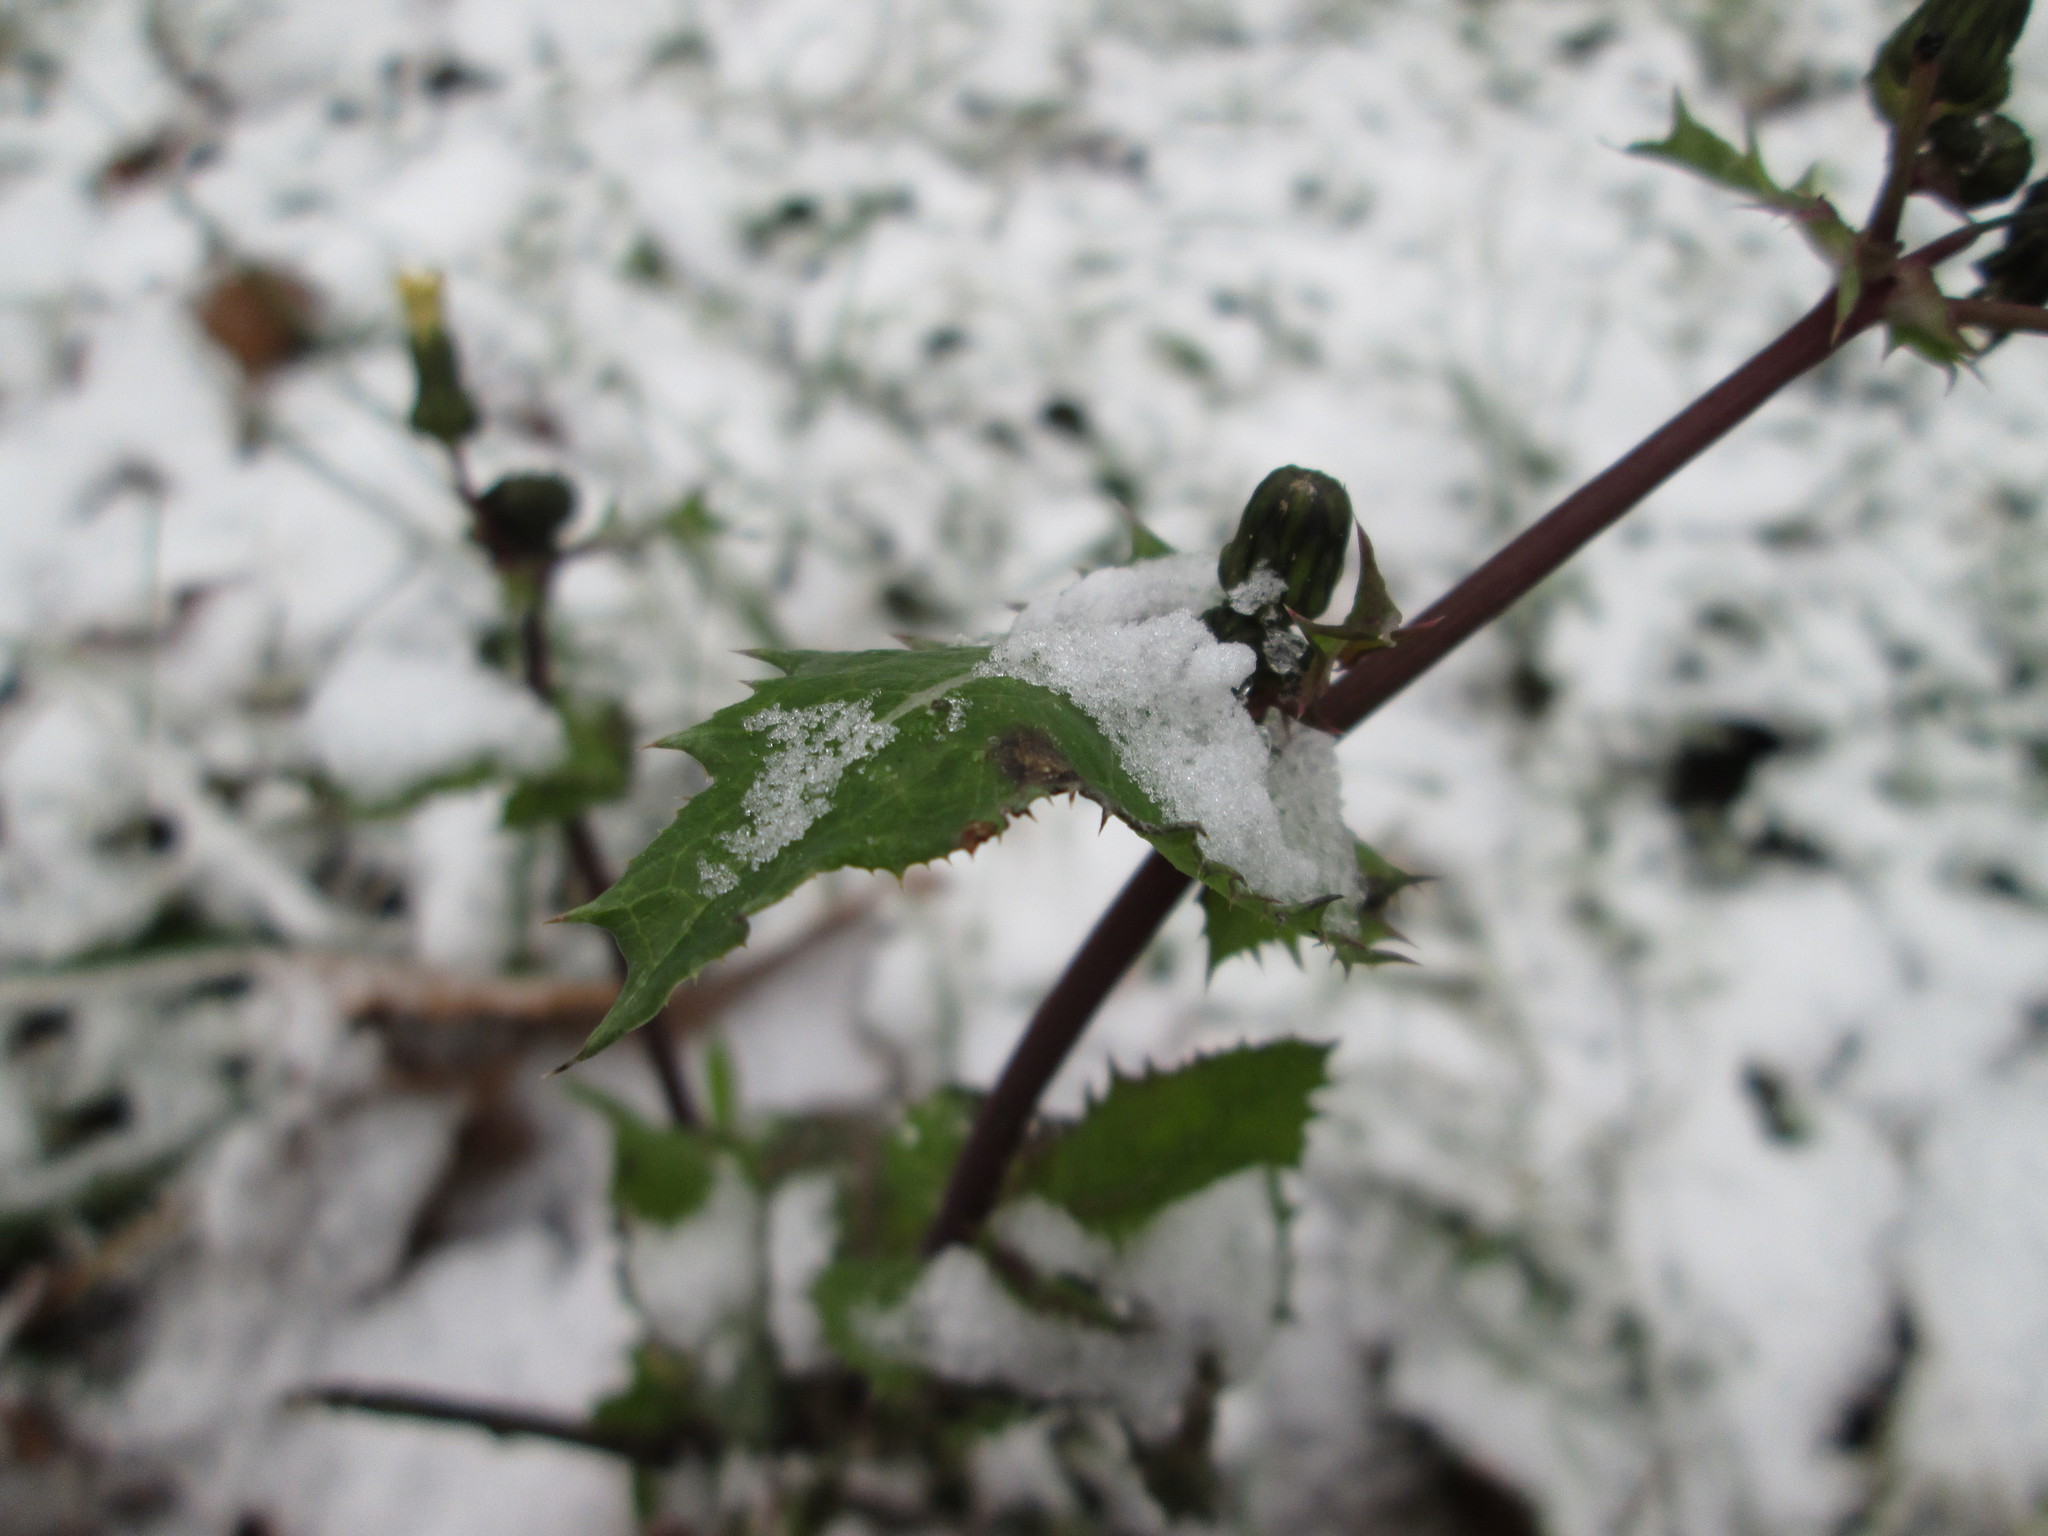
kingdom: Plantae
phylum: Tracheophyta
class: Magnoliopsida
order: Asterales
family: Asteraceae
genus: Sonchus
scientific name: Sonchus asper
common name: Prickly sow-thistle
